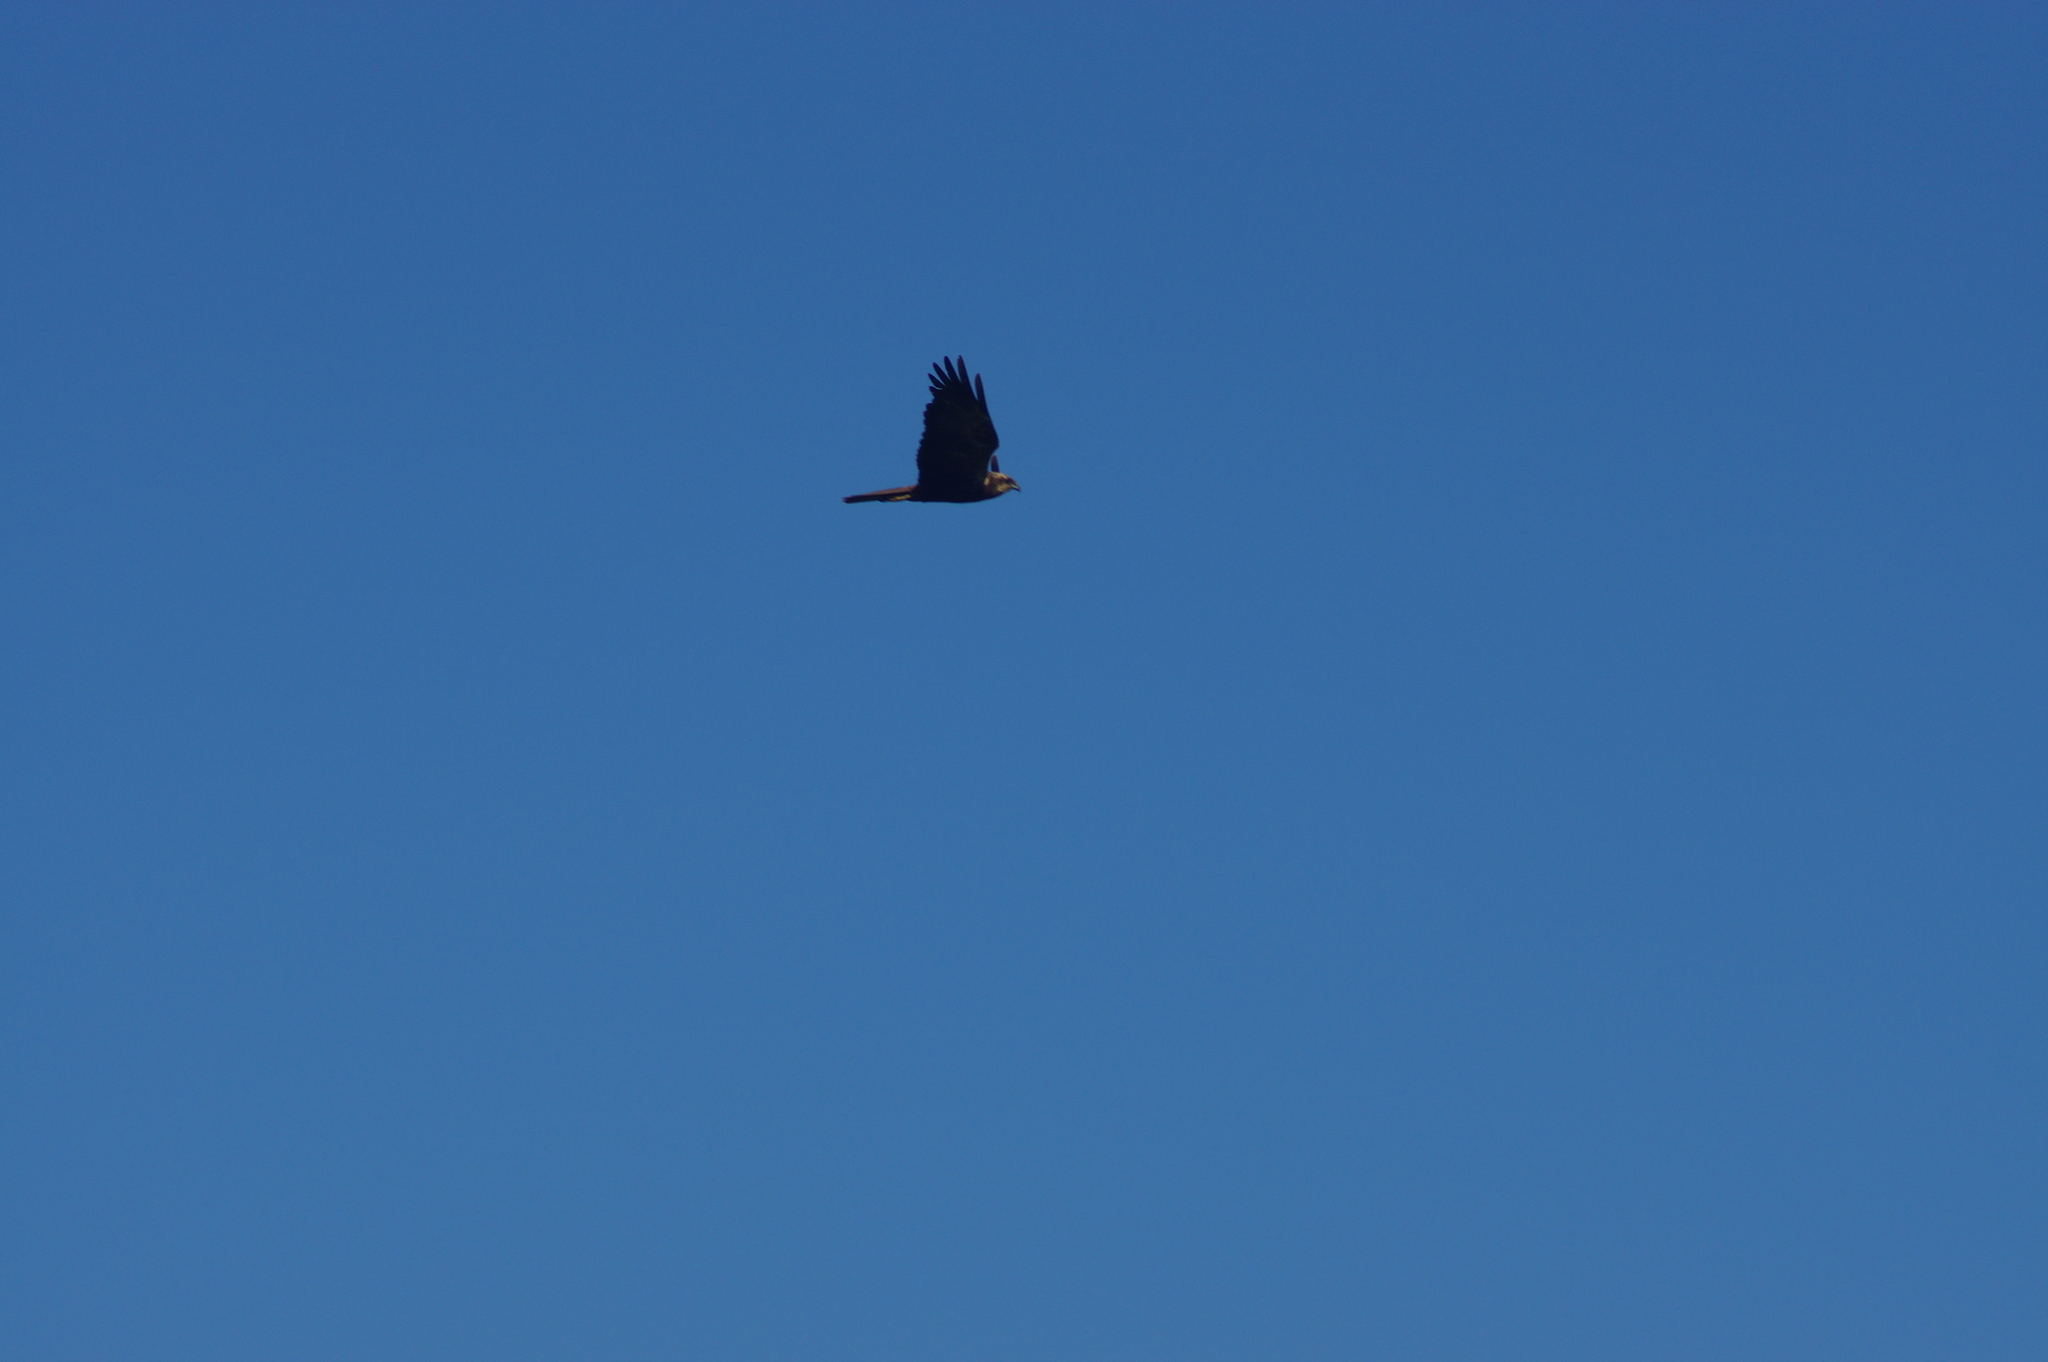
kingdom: Animalia
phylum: Chordata
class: Aves
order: Accipitriformes
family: Accipitridae
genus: Circus
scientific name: Circus aeruginosus
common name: Western marsh harrier
